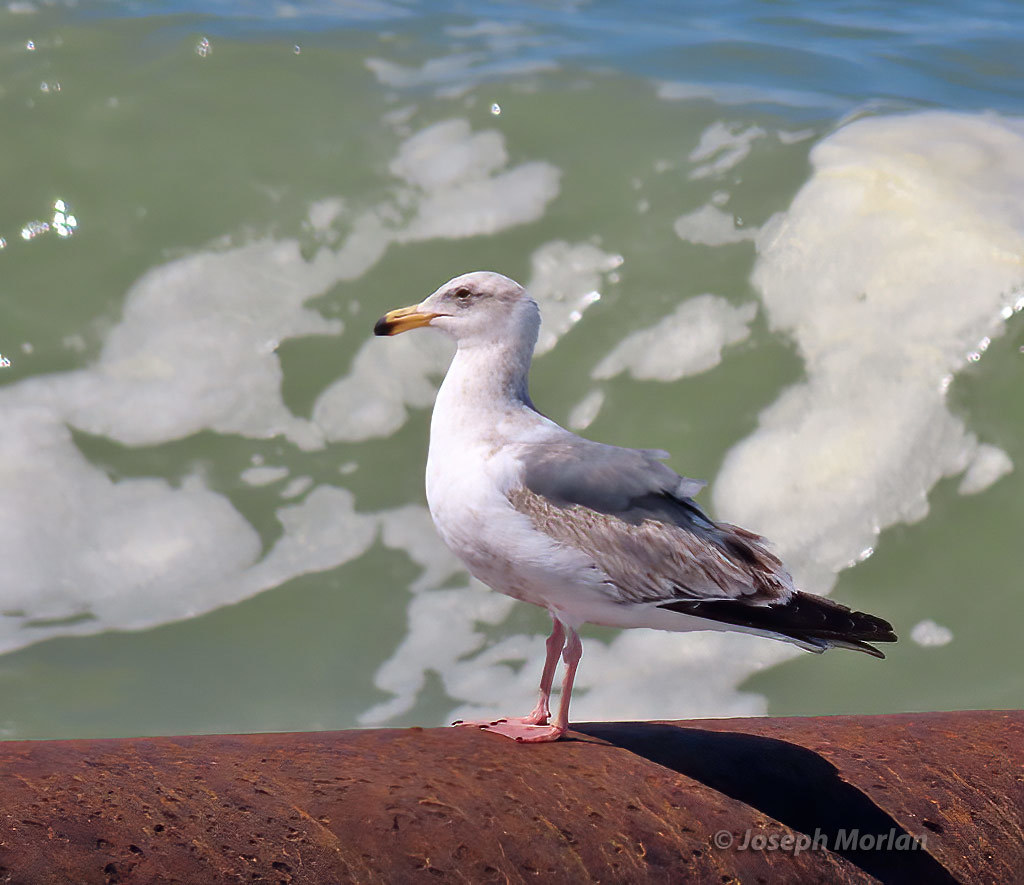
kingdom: Animalia
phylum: Chordata
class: Aves
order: Charadriiformes
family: Laridae
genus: Larus
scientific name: Larus occidentalis
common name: Western gull
